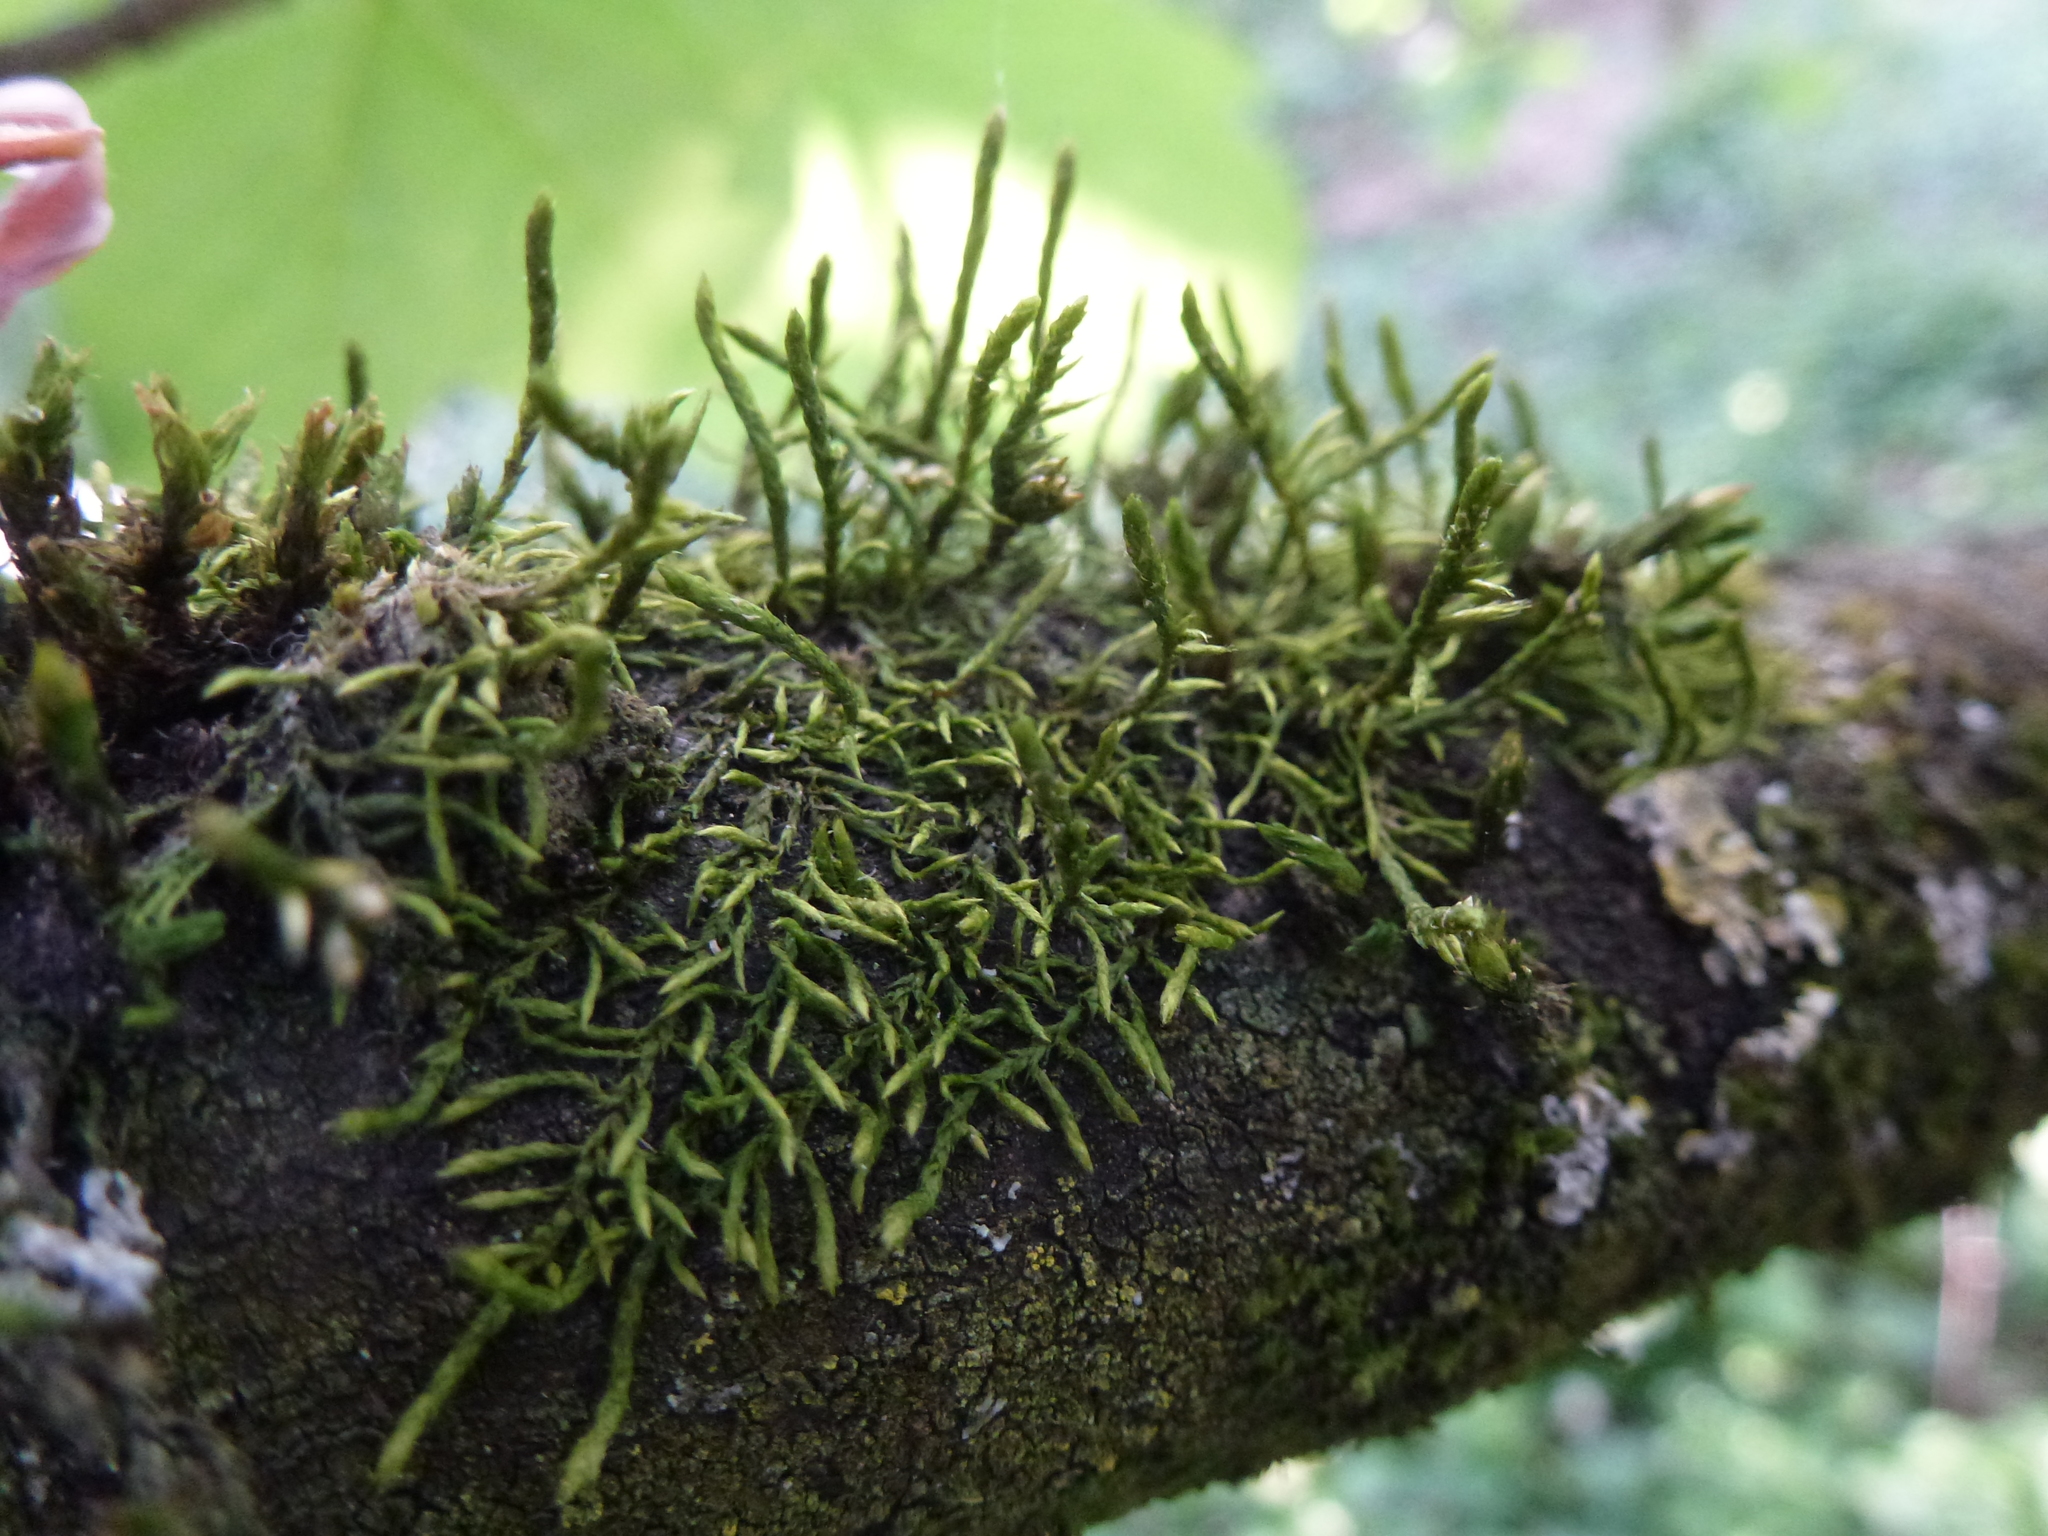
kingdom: Plantae
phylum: Bryophyta
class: Bryopsida
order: Hypnales
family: Cryphaeaceae
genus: Cryphaea
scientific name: Cryphaea heteromalla
